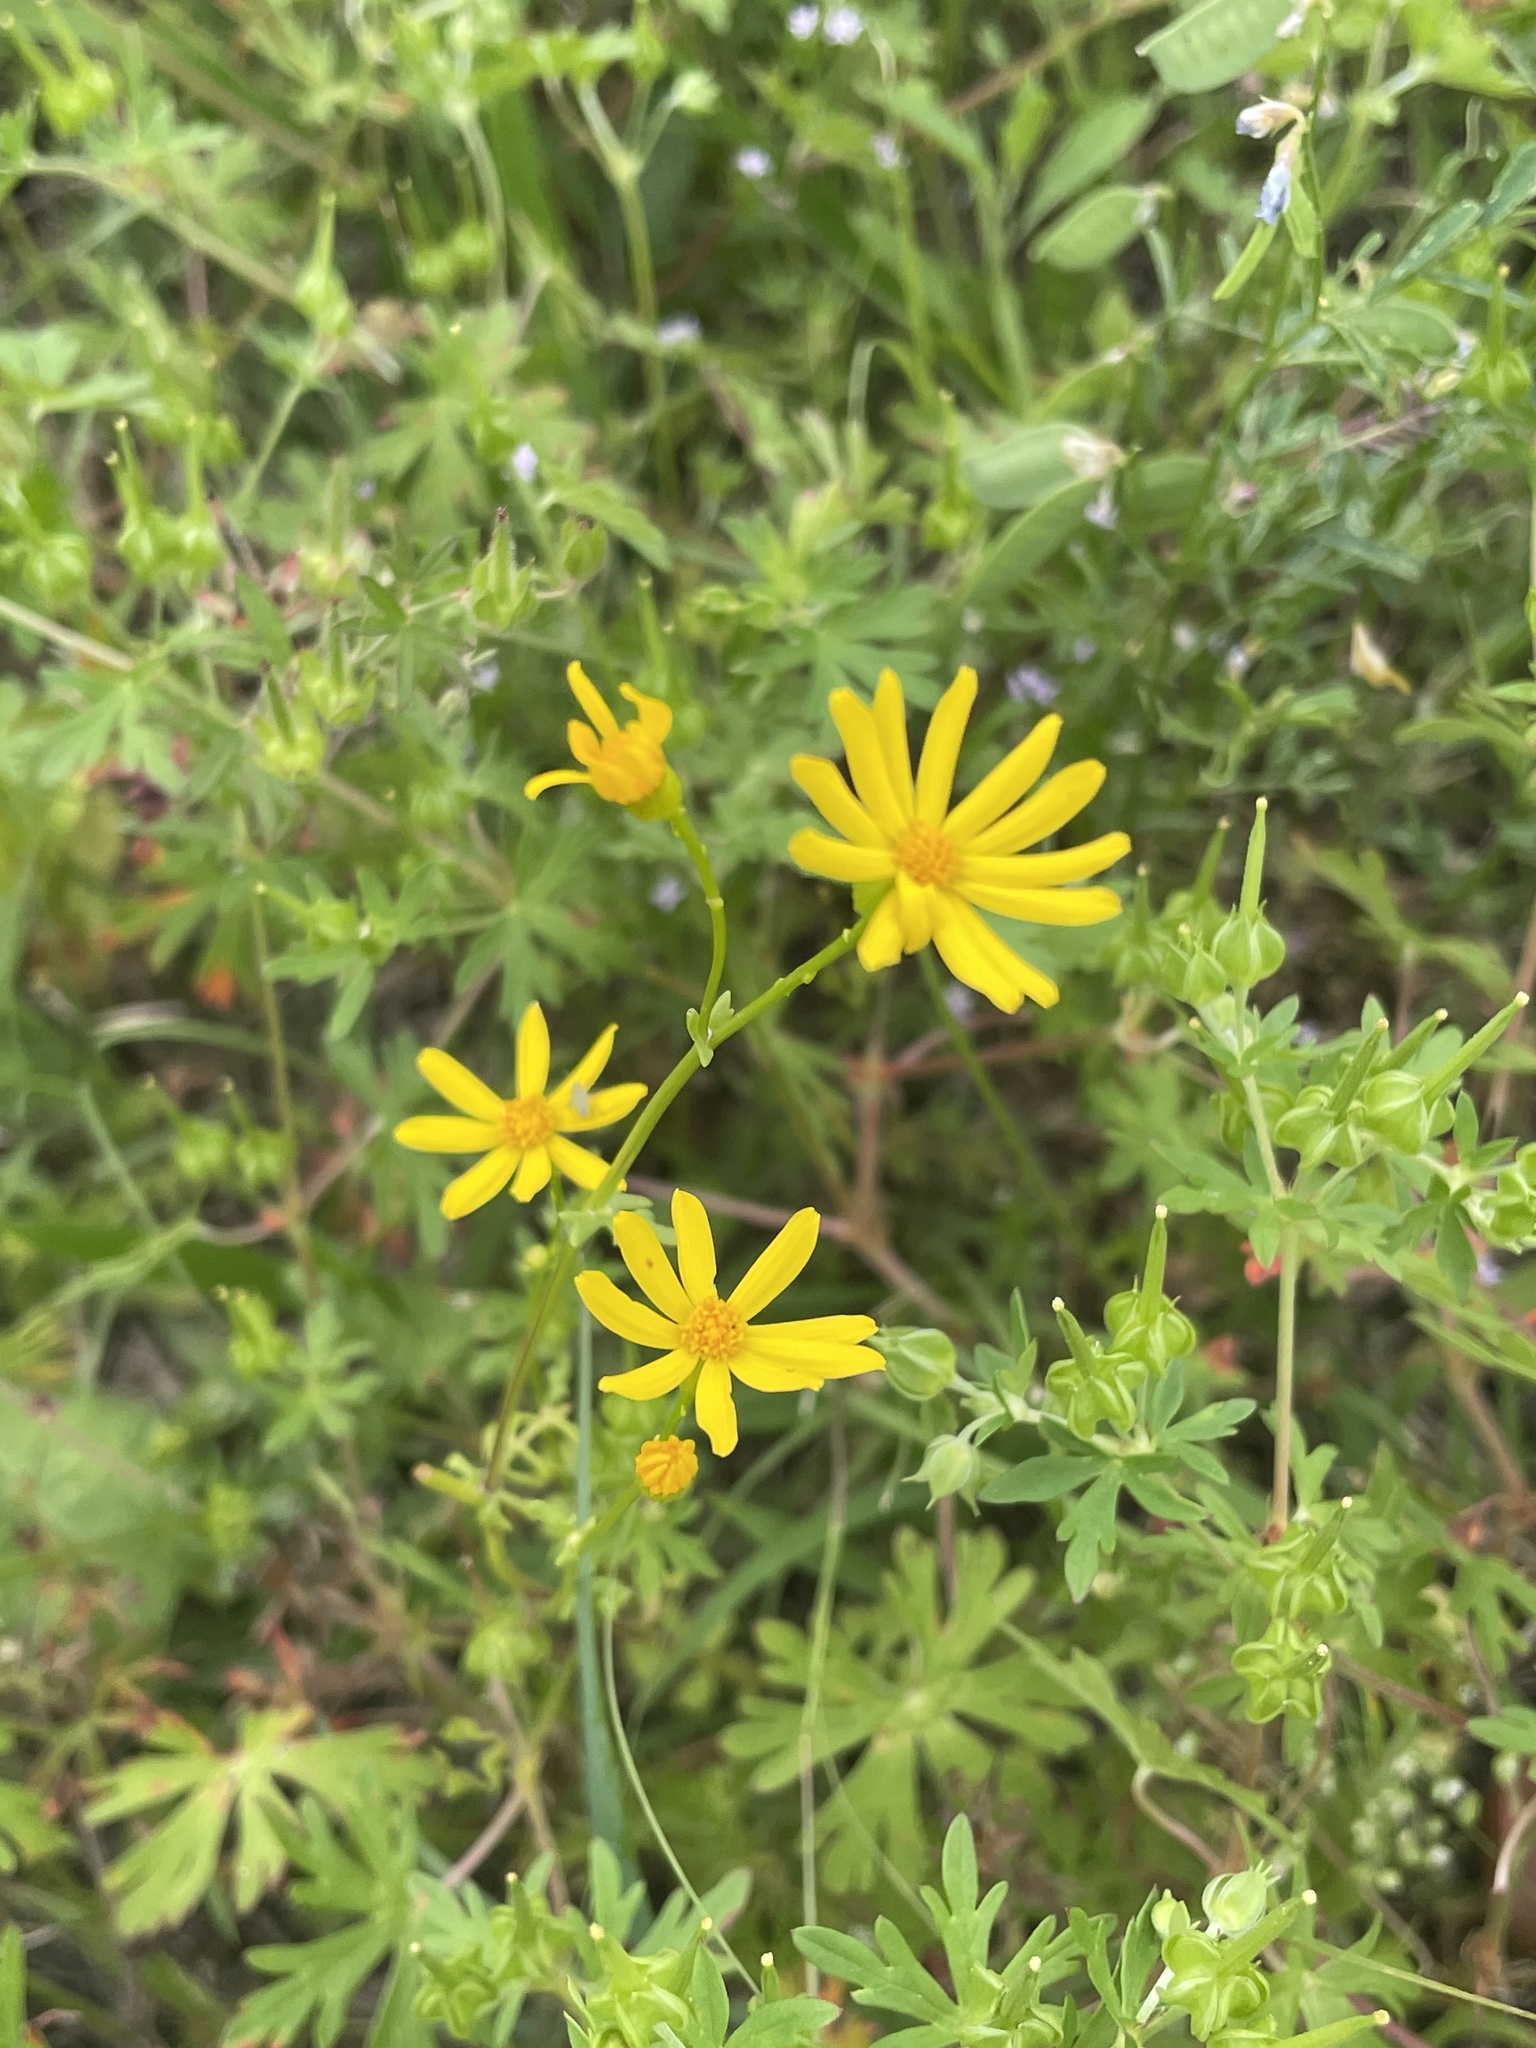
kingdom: Plantae
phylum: Tracheophyta
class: Magnoliopsida
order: Asterales
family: Asteraceae
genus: Packera
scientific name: Packera tampicana
